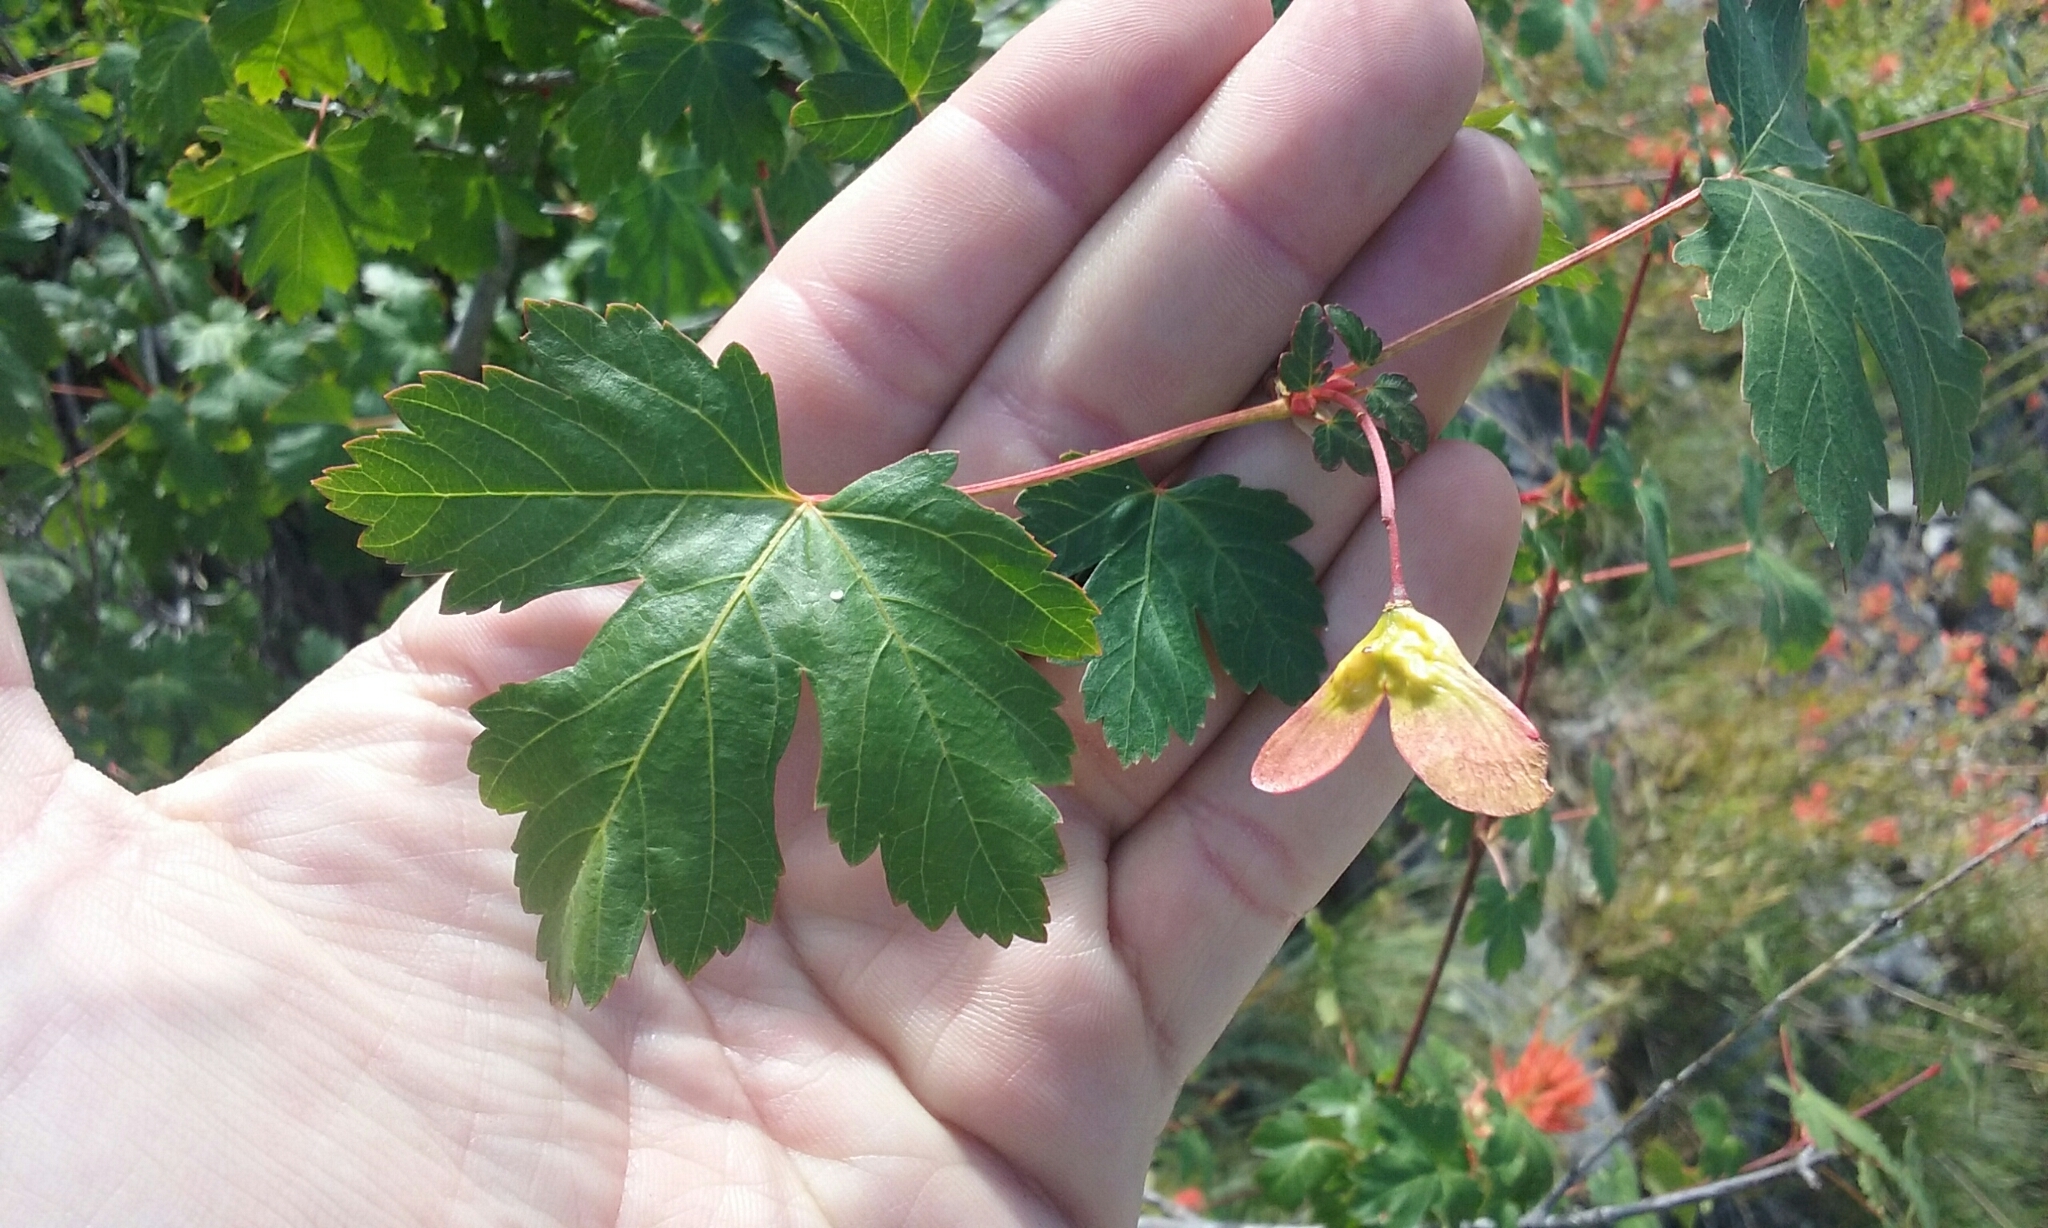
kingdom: Plantae
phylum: Tracheophyta
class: Magnoliopsida
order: Sapindales
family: Sapindaceae
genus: Acer
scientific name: Acer glabrum
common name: Rocky mountain maple
